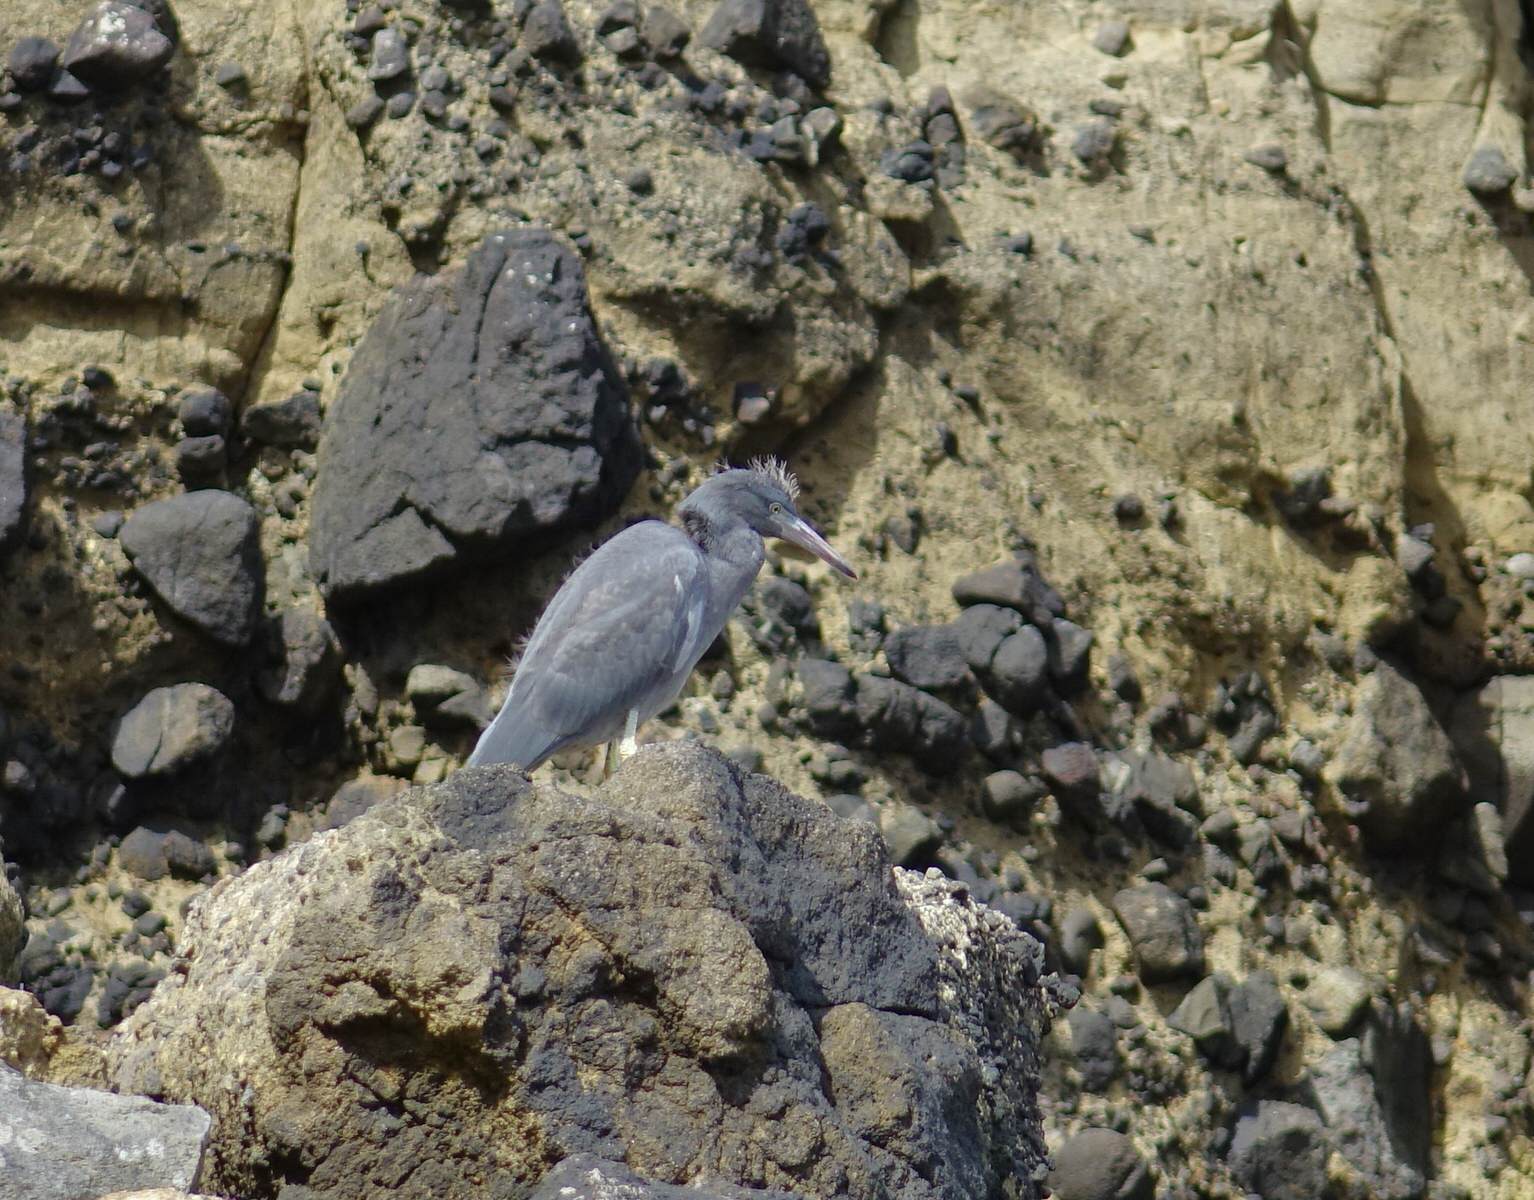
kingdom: Animalia
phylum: Chordata
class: Aves
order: Pelecaniformes
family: Ardeidae
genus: Egretta
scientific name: Egretta sacra
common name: Pacific reef heron
